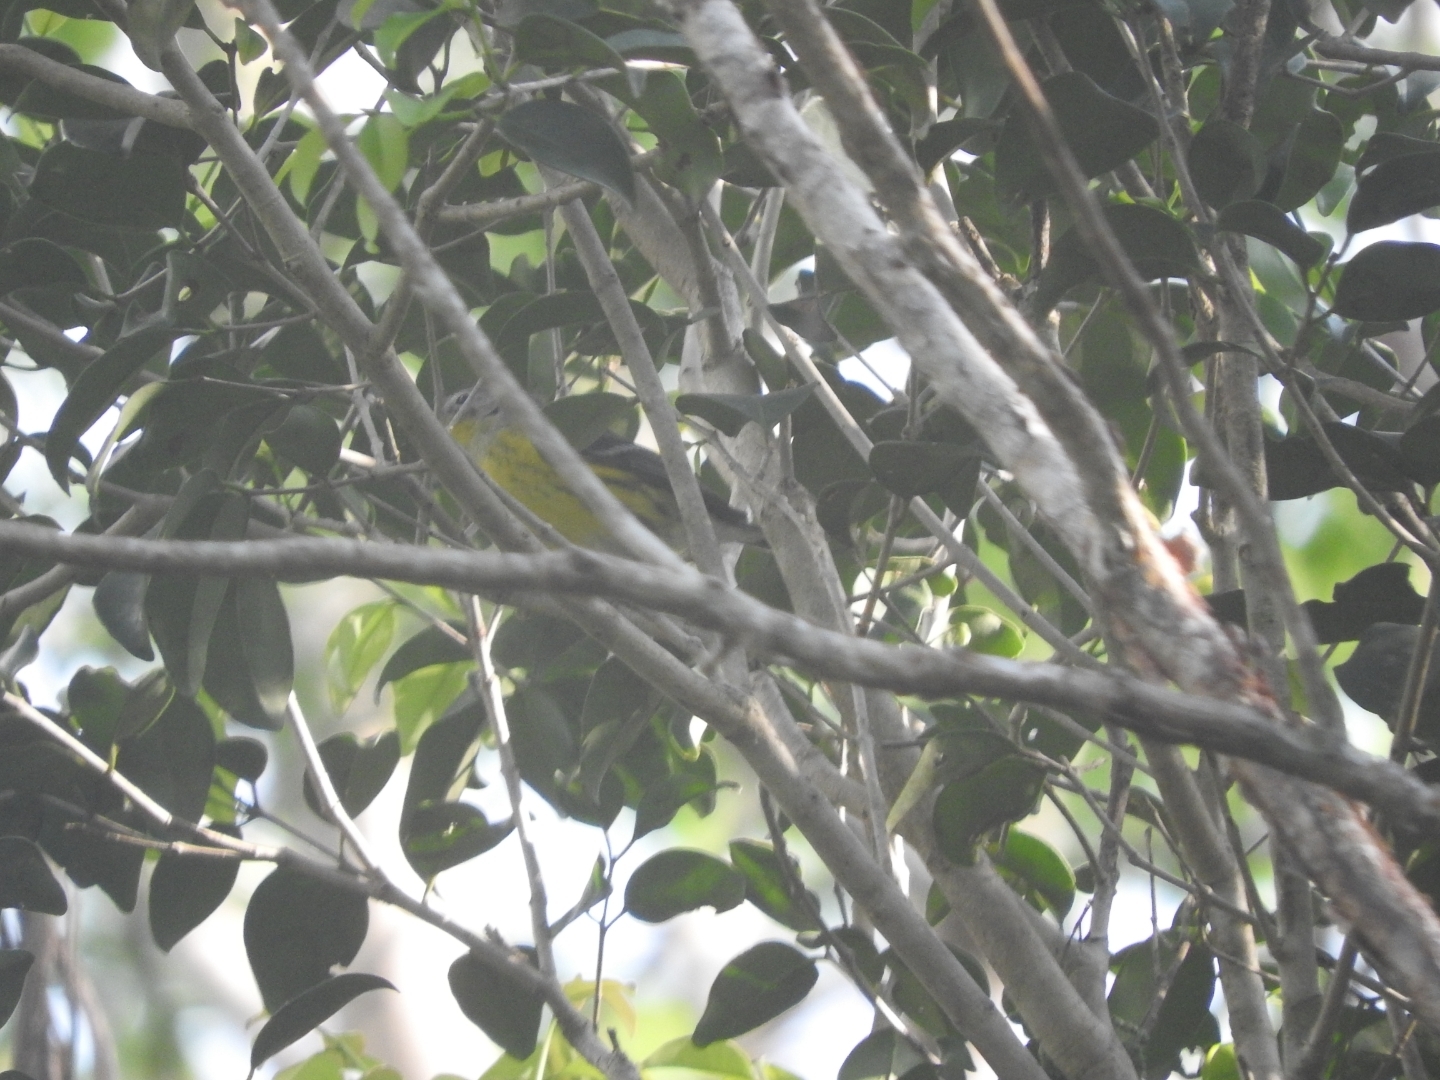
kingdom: Animalia
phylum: Chordata
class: Aves
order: Passeriformes
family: Parulidae
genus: Setophaga
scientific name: Setophaga magnolia
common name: Magnolia warbler
